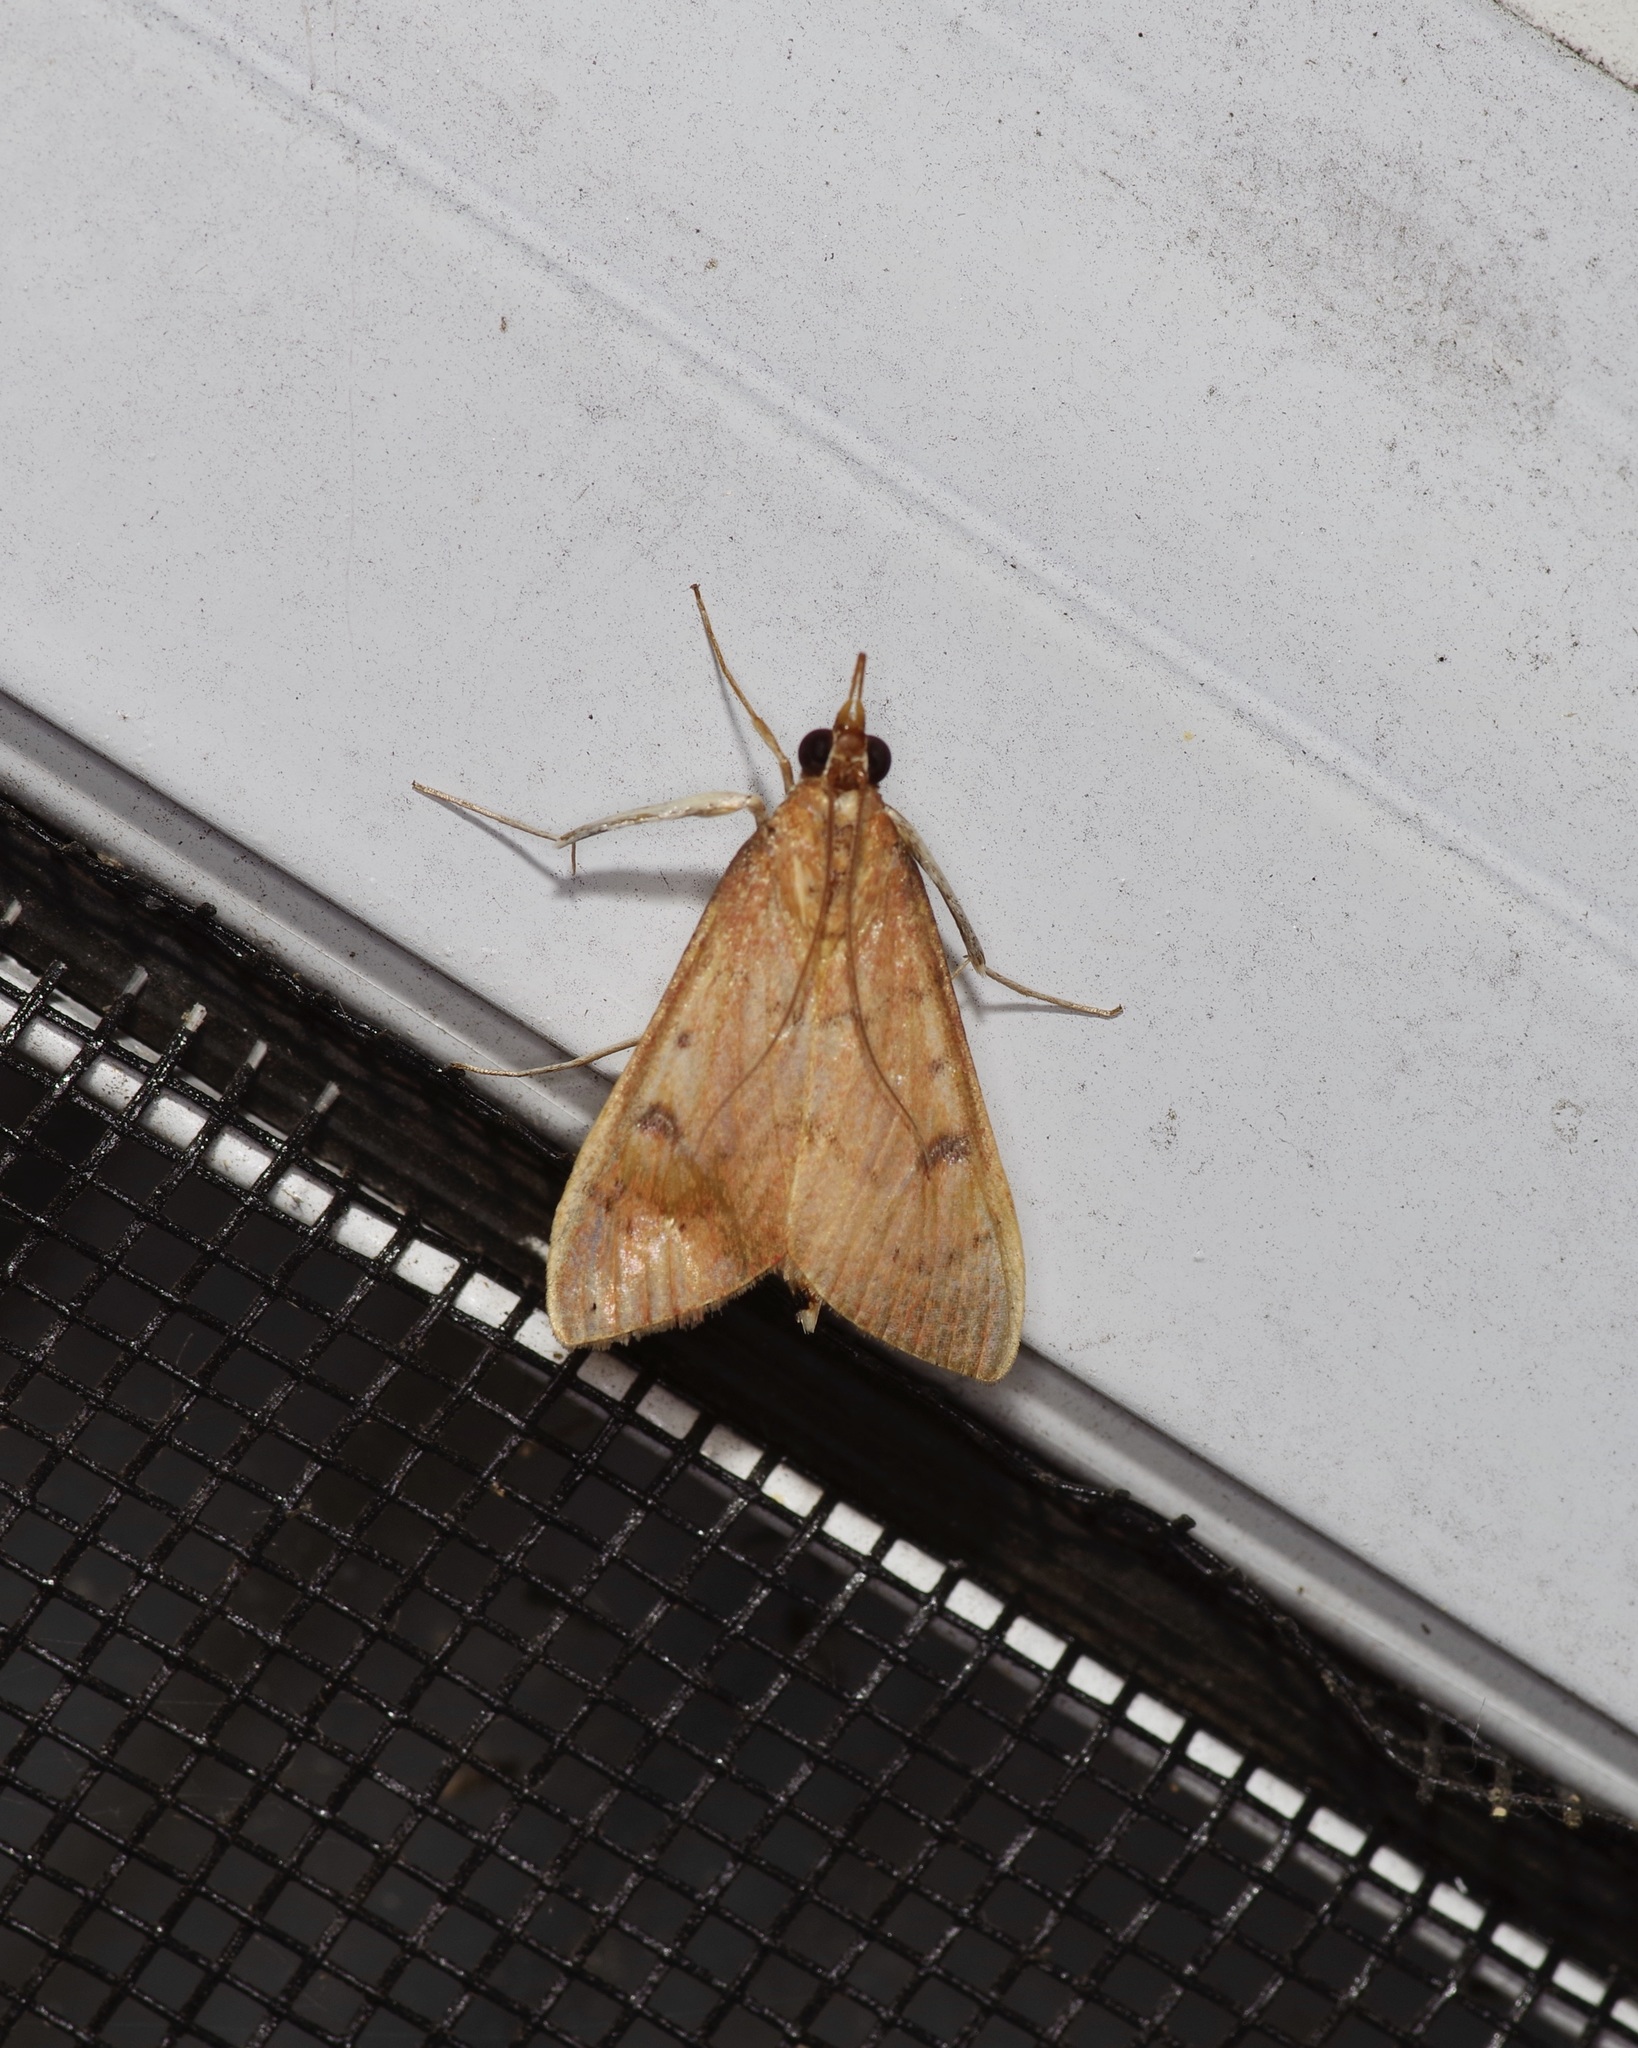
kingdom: Animalia
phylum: Arthropoda
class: Insecta
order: Lepidoptera
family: Crambidae
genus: Uresiphita
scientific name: Uresiphita reversalis
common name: Genista broom moth
